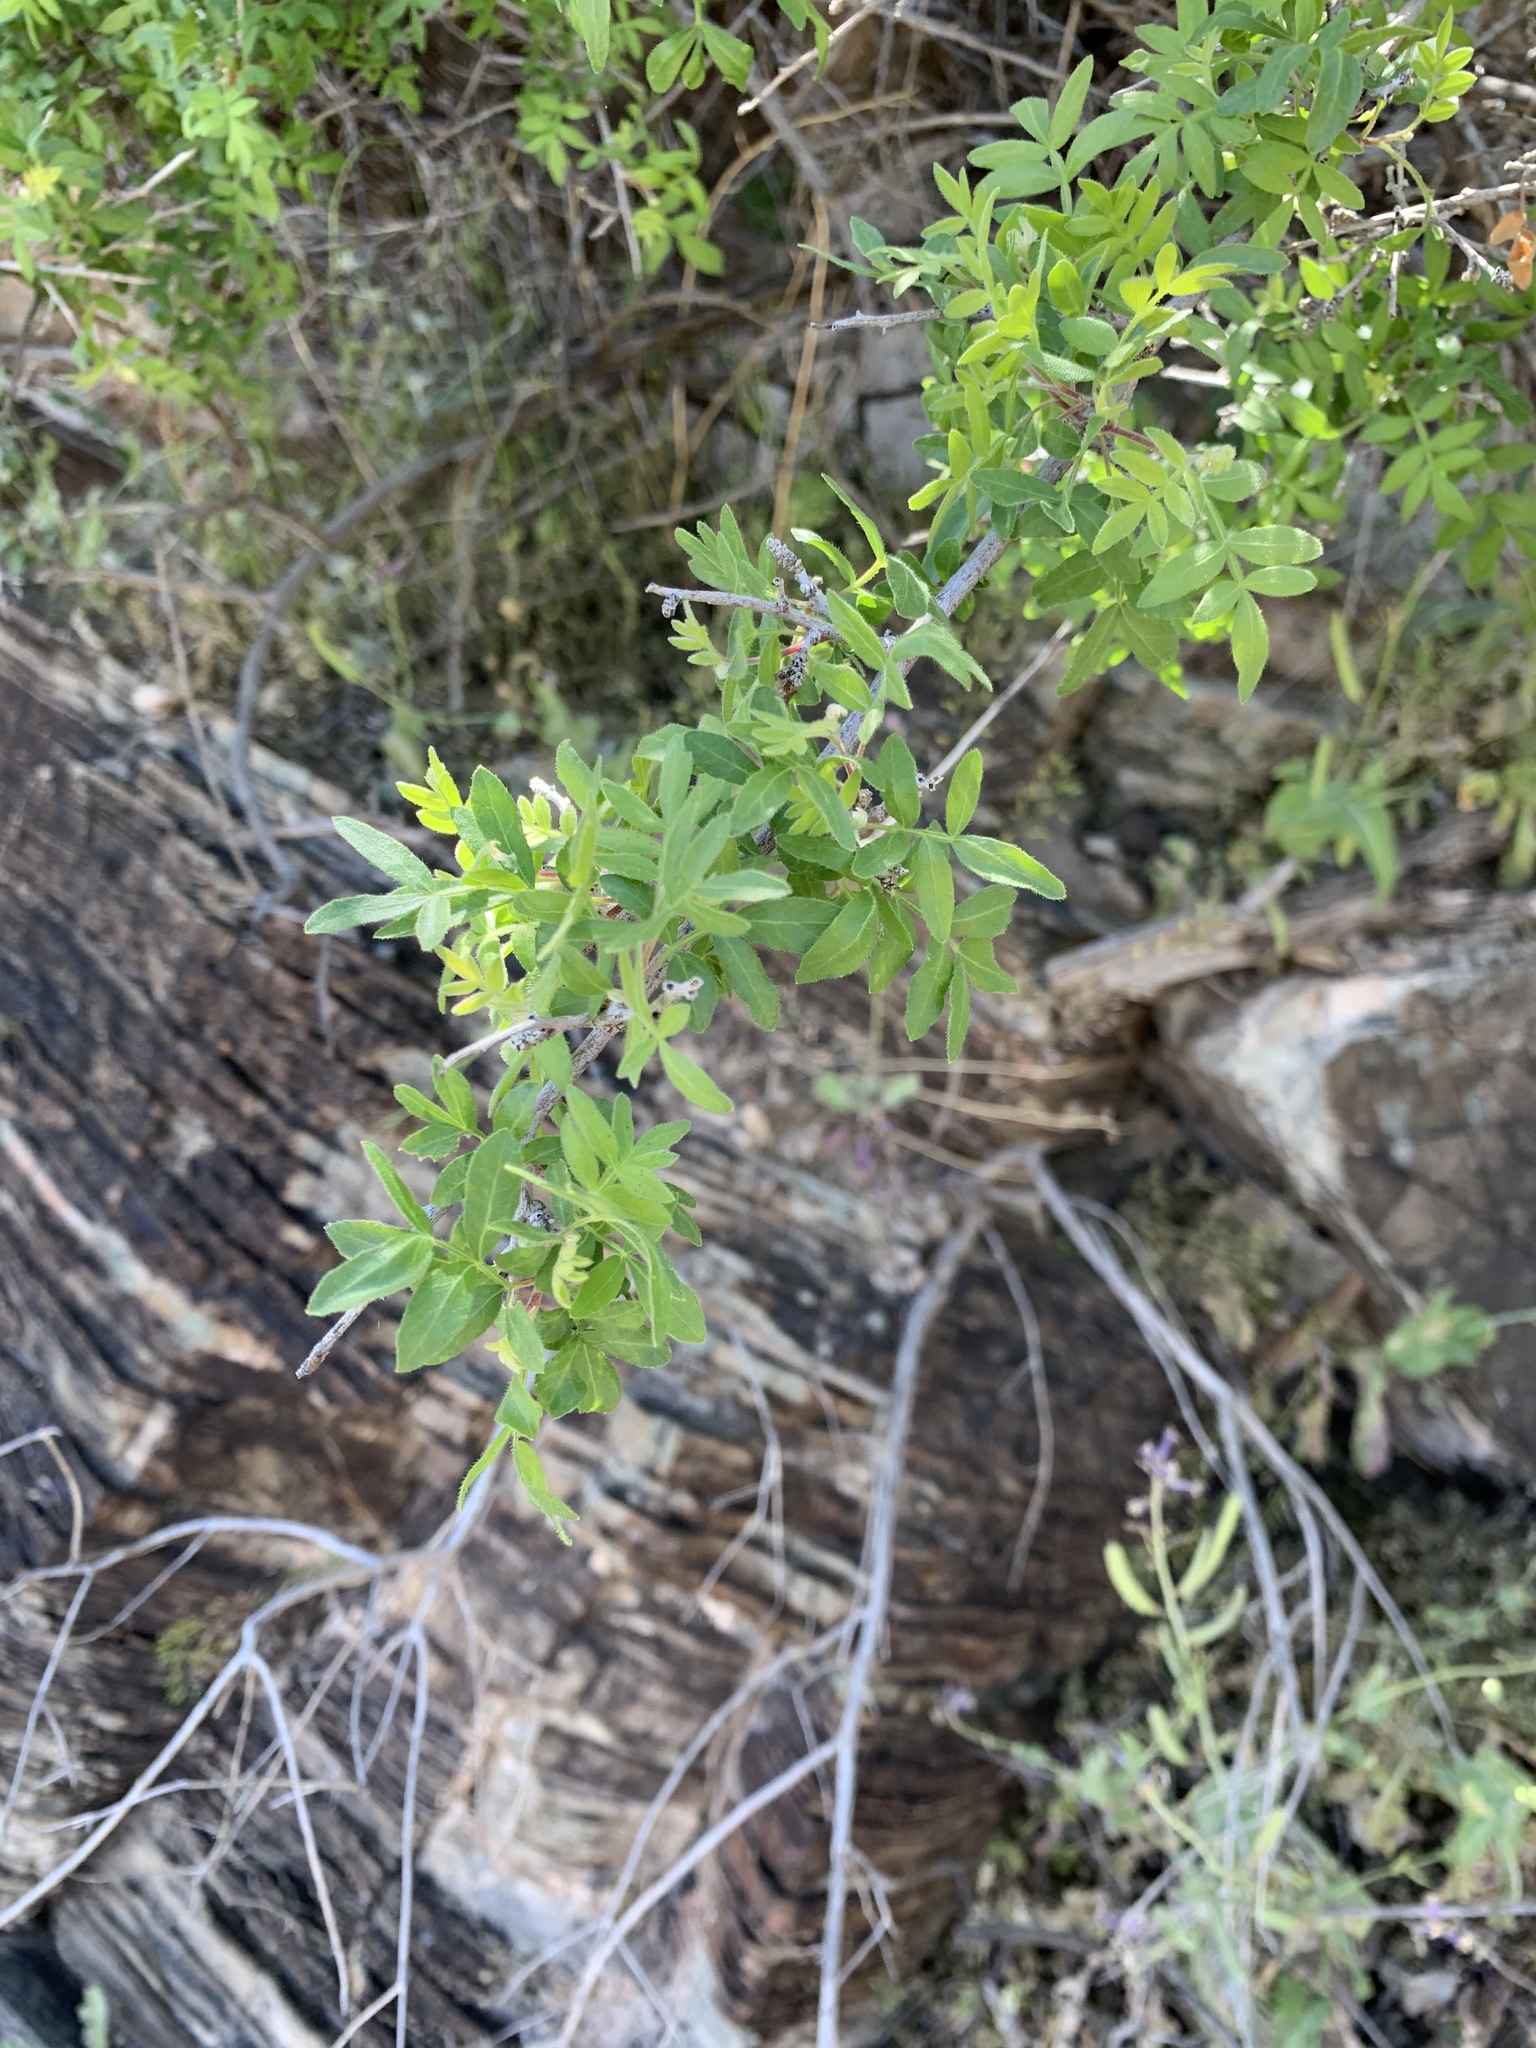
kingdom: Plantae
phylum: Tracheophyta
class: Magnoliopsida
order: Sapindales
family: Anacardiaceae
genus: Rhus
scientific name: Rhus microphylla
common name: Desert sumac
